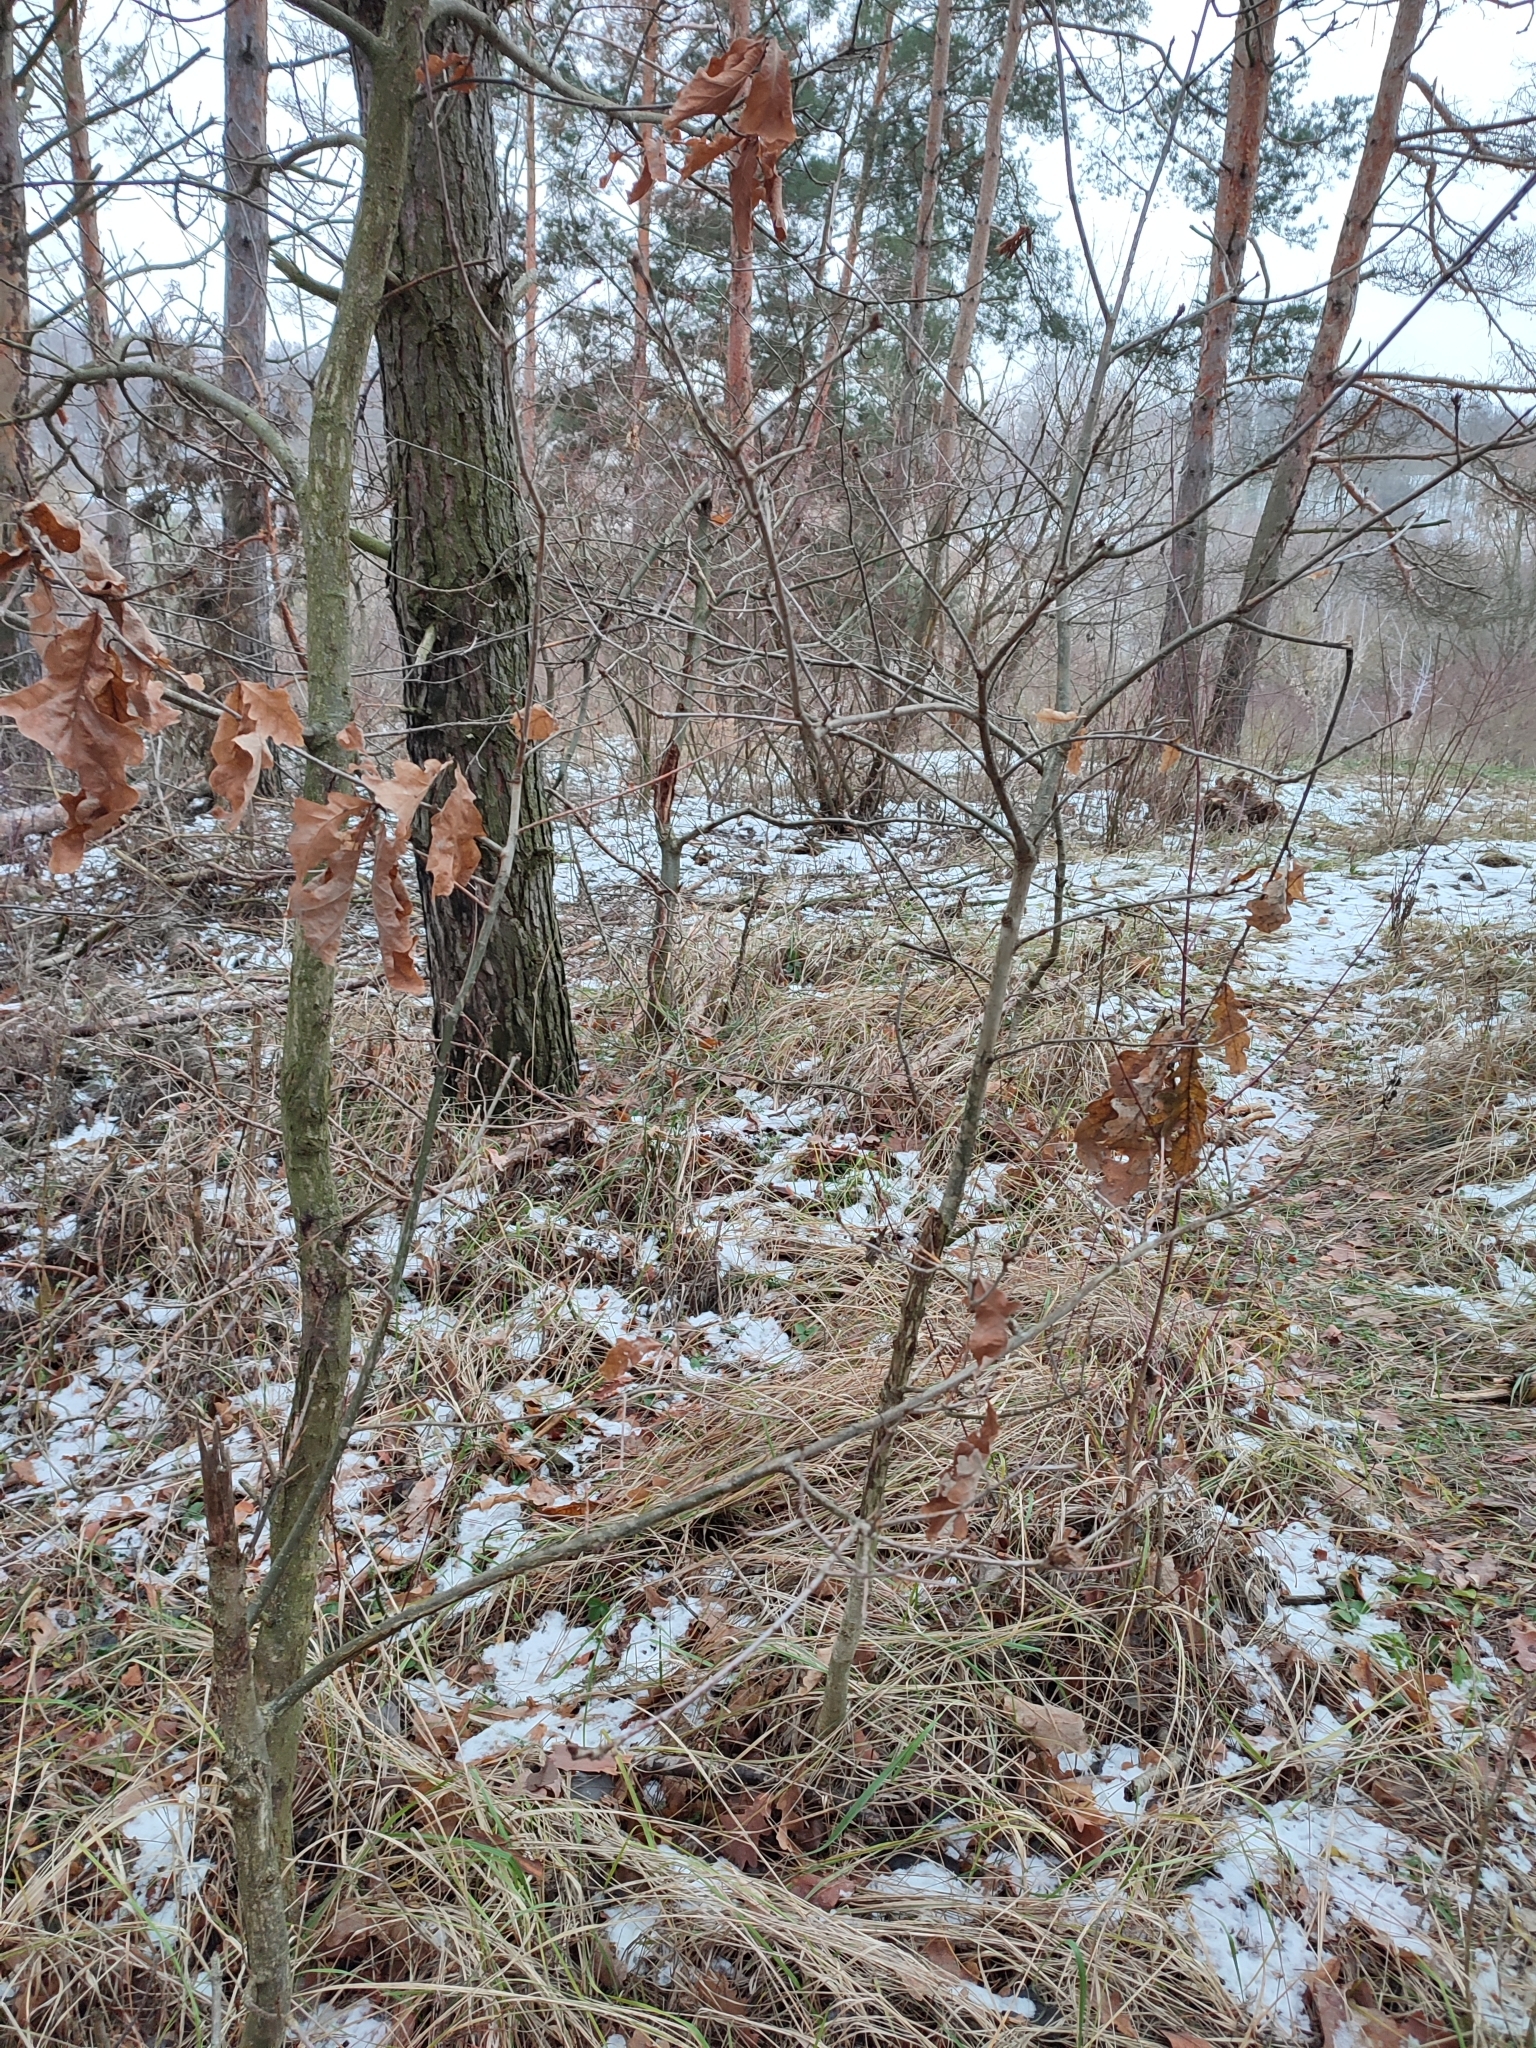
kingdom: Plantae
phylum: Tracheophyta
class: Magnoliopsida
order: Fagales
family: Fagaceae
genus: Quercus
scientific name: Quercus robur
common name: Pedunculate oak
